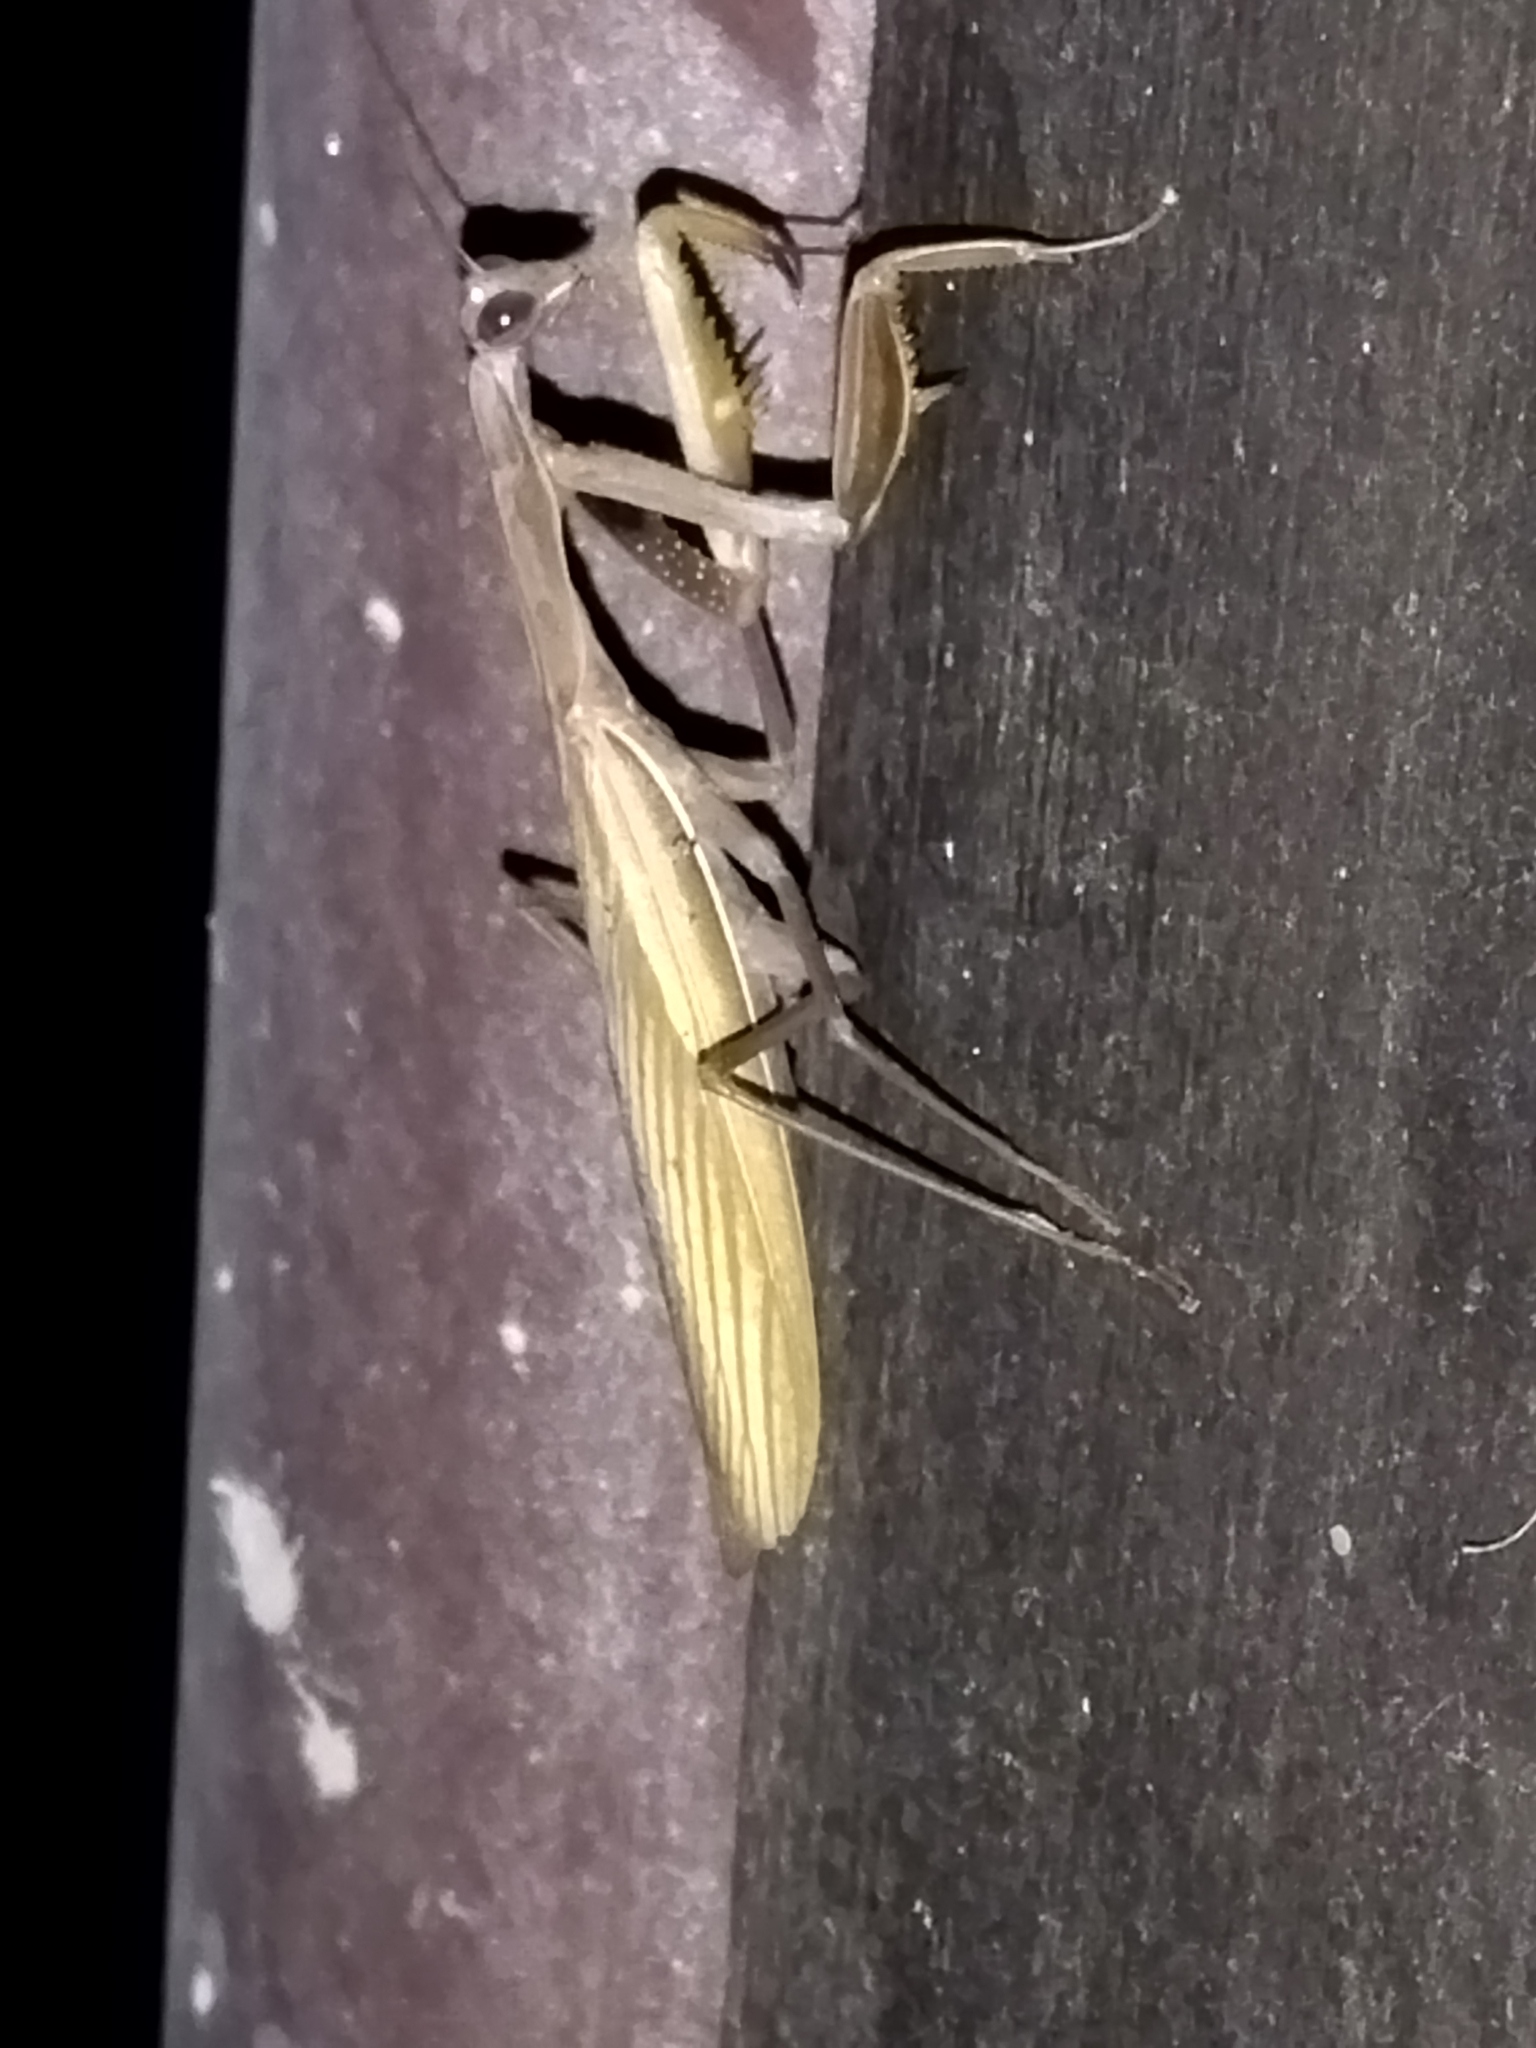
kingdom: Animalia
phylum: Arthropoda
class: Insecta
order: Mantodea
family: Mantidae
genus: Mantis
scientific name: Mantis religiosa
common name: Praying mantis
